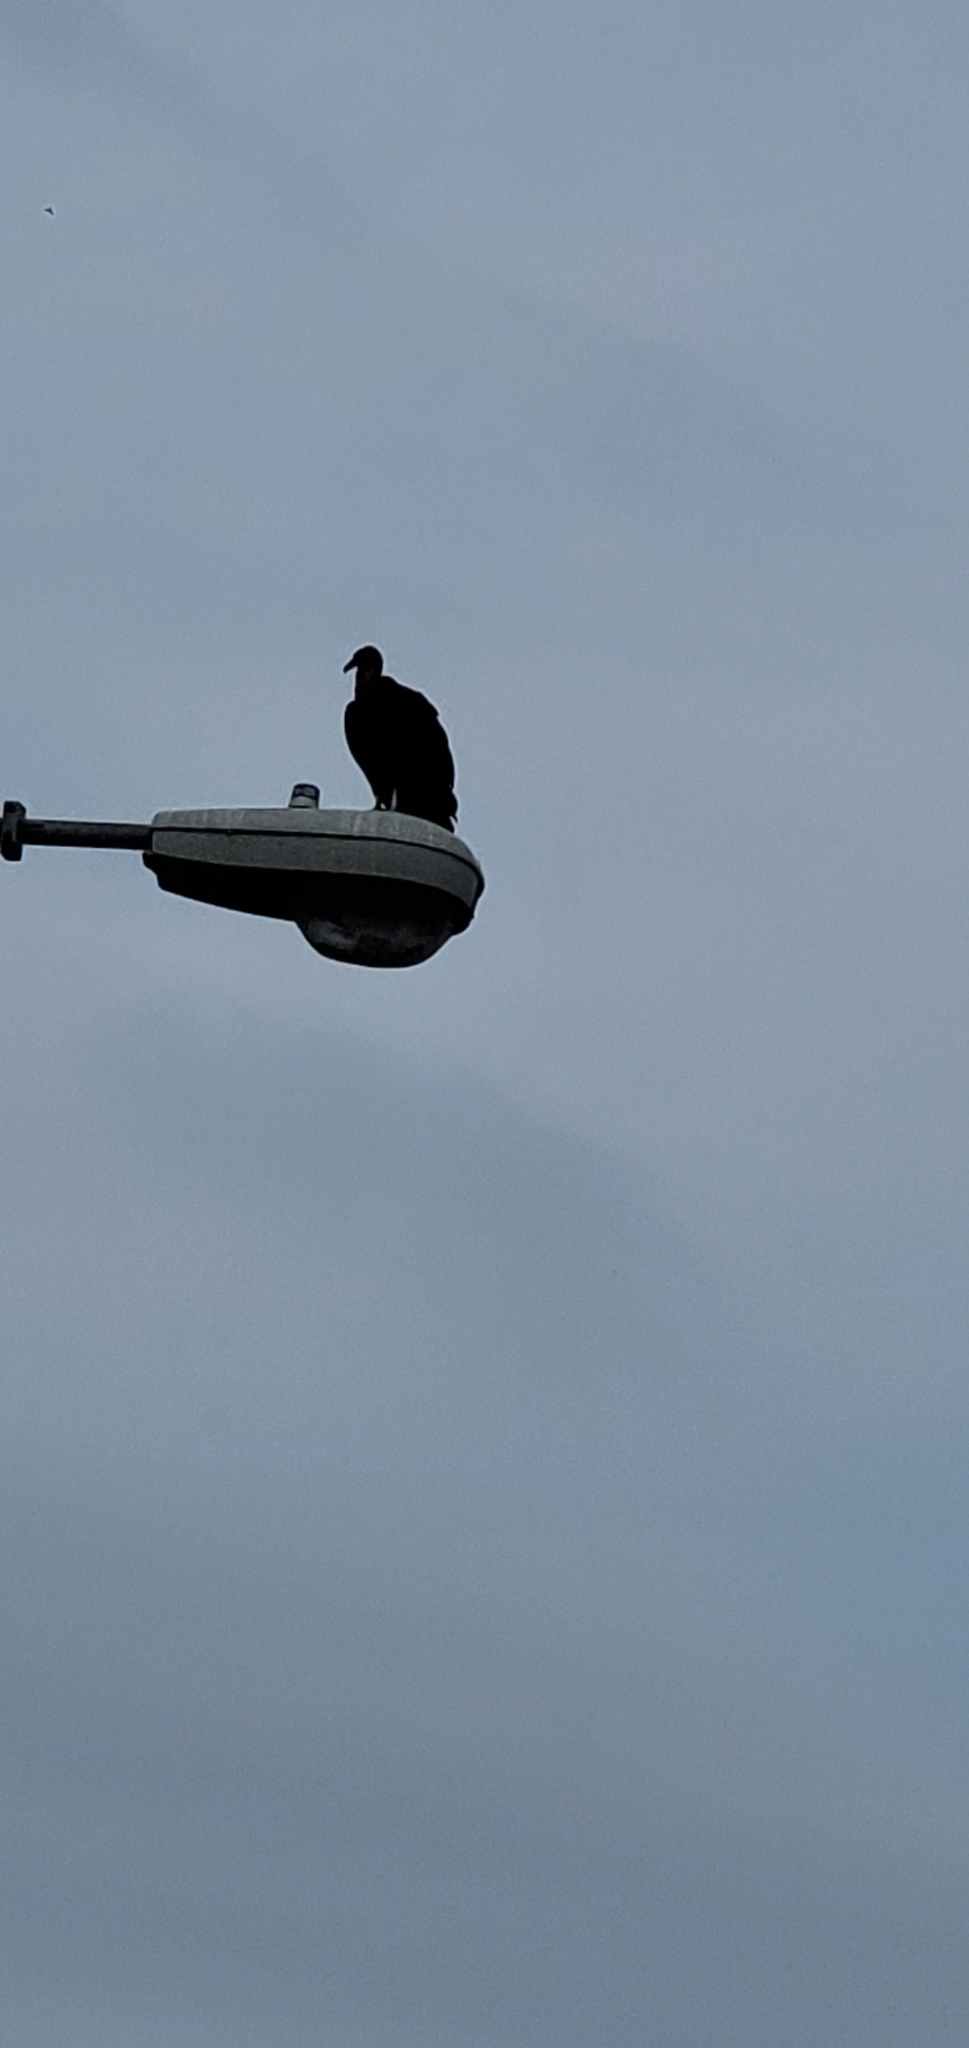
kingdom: Animalia
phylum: Chordata
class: Aves
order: Accipitriformes
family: Cathartidae
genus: Coragyps
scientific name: Coragyps atratus
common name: Black vulture
